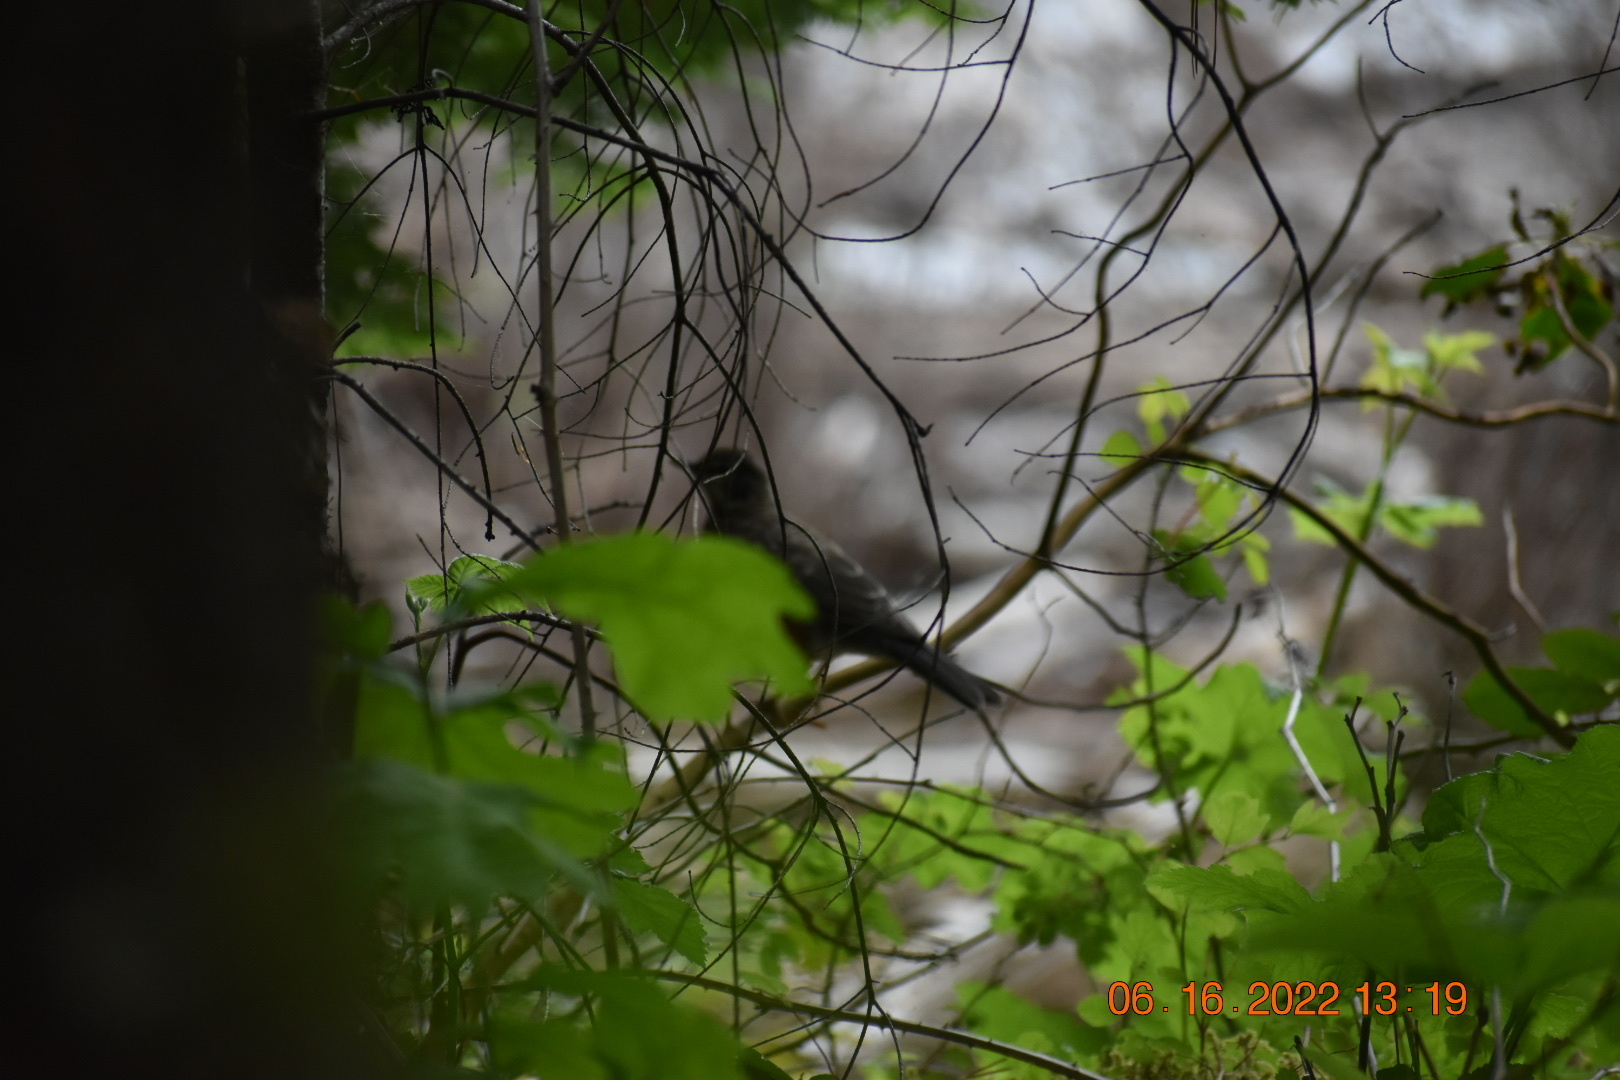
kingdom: Animalia
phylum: Chordata
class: Aves
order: Passeriformes
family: Turdidae
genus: Turdus
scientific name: Turdus migratorius
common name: American robin
